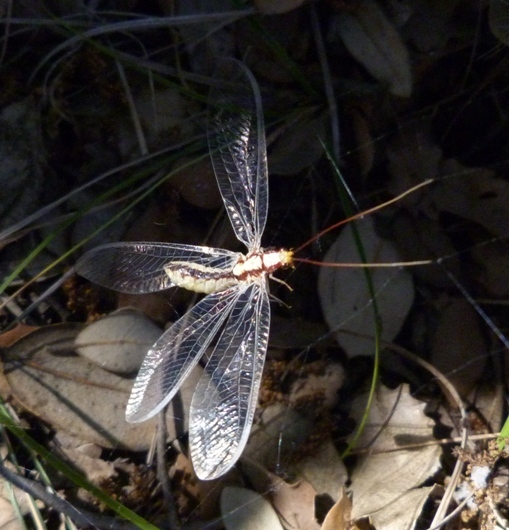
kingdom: Animalia
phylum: Arthropoda
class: Insecta
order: Neuroptera
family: Chrysopidae
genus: Italochrysa
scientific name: Italochrysa italica
